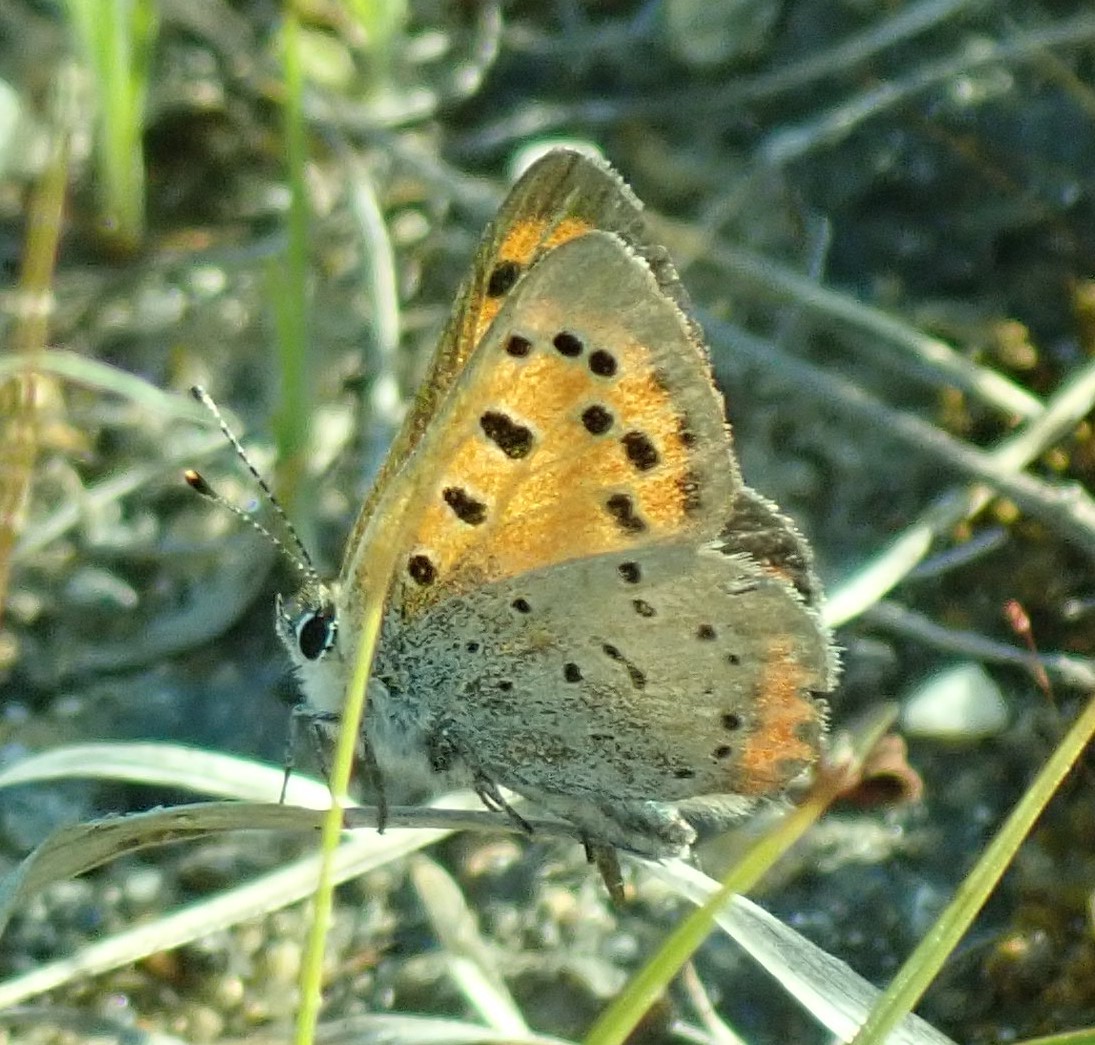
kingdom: Animalia
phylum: Arthropoda
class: Insecta
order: Lepidoptera
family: Lycaenidae
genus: Lycaena
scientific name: Lycaena hypophlaeas
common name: American copper
